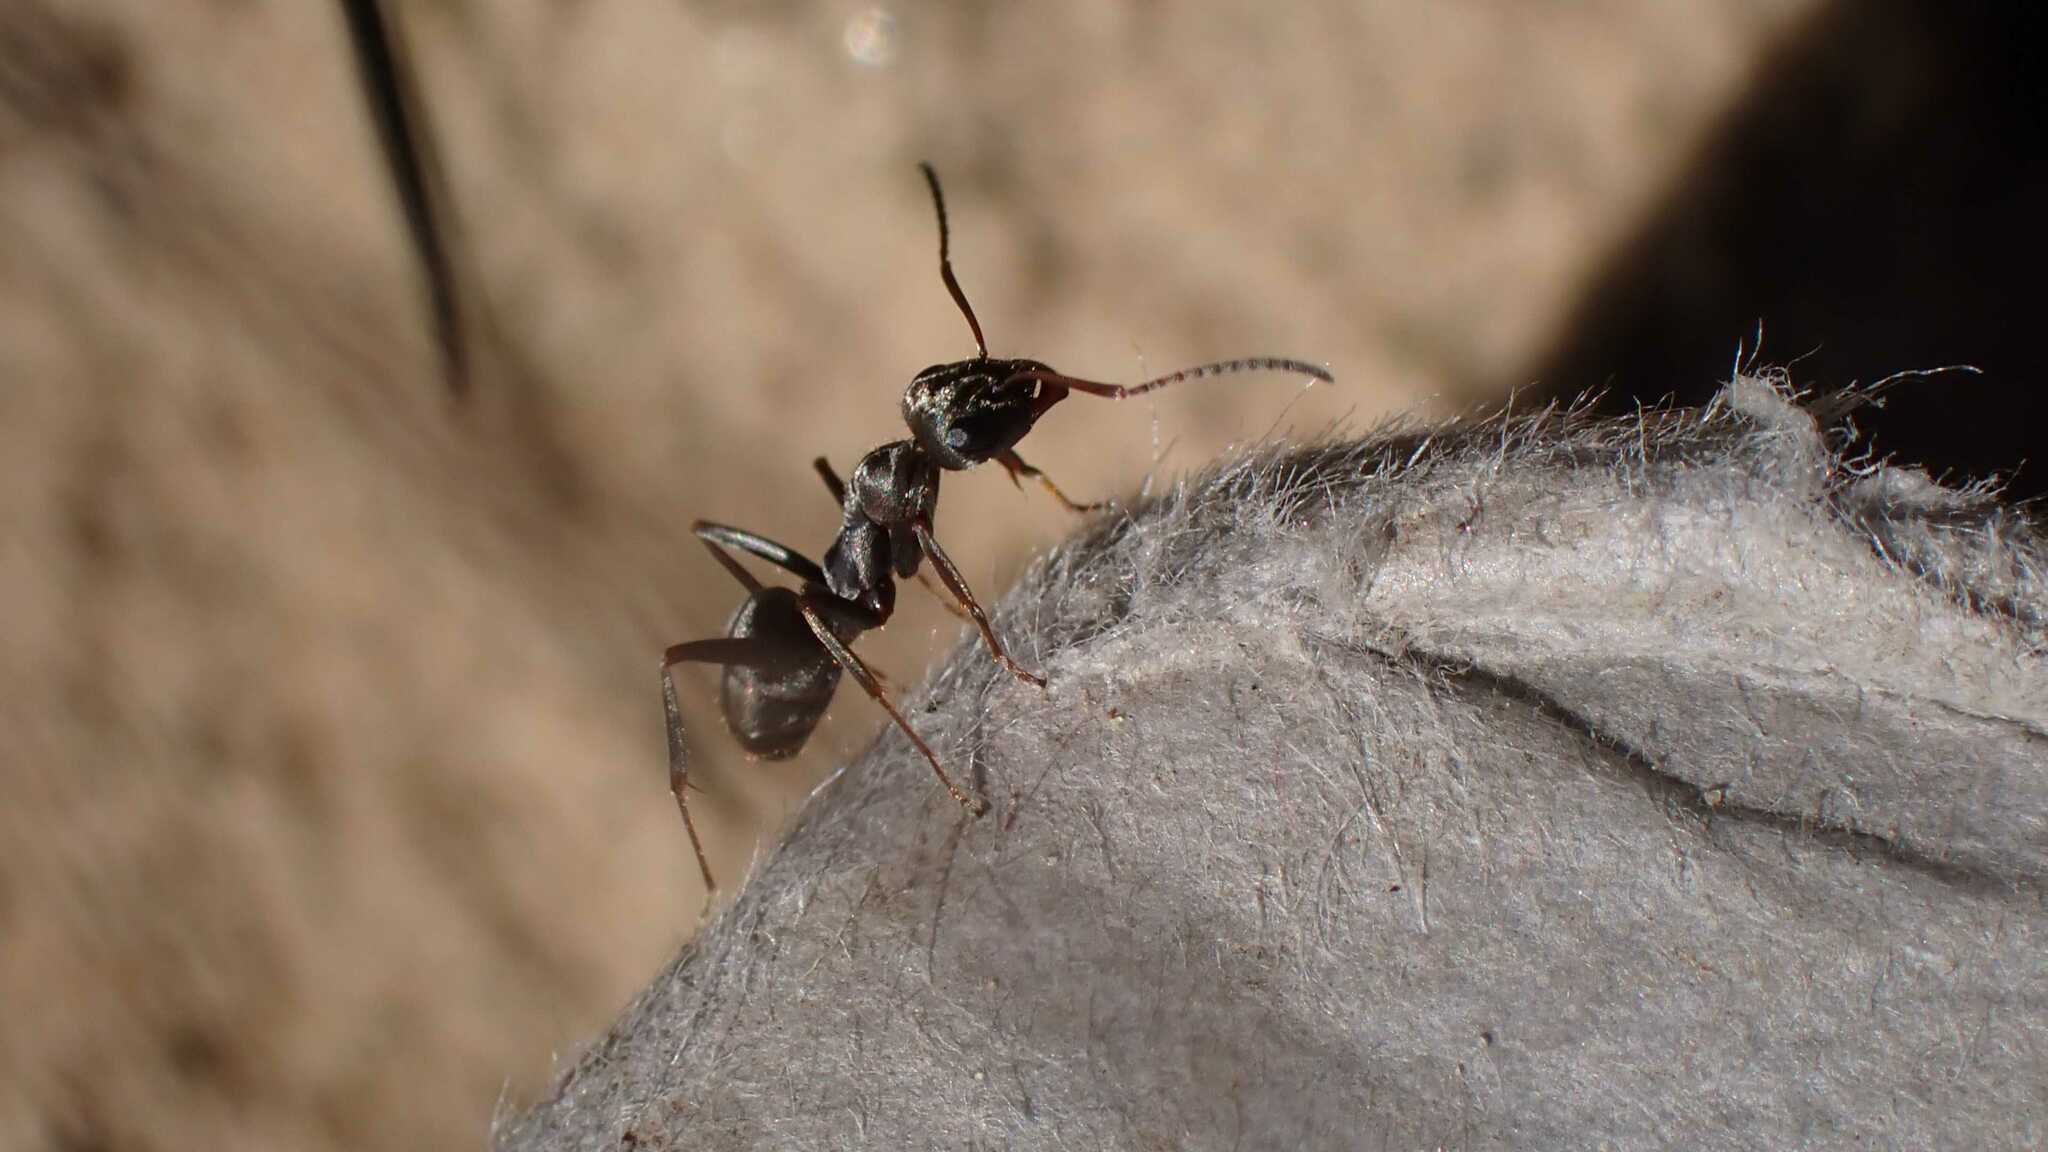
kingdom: Animalia
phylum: Arthropoda
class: Insecta
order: Hymenoptera
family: Formicidae
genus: Formica
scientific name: Formica cinerea
